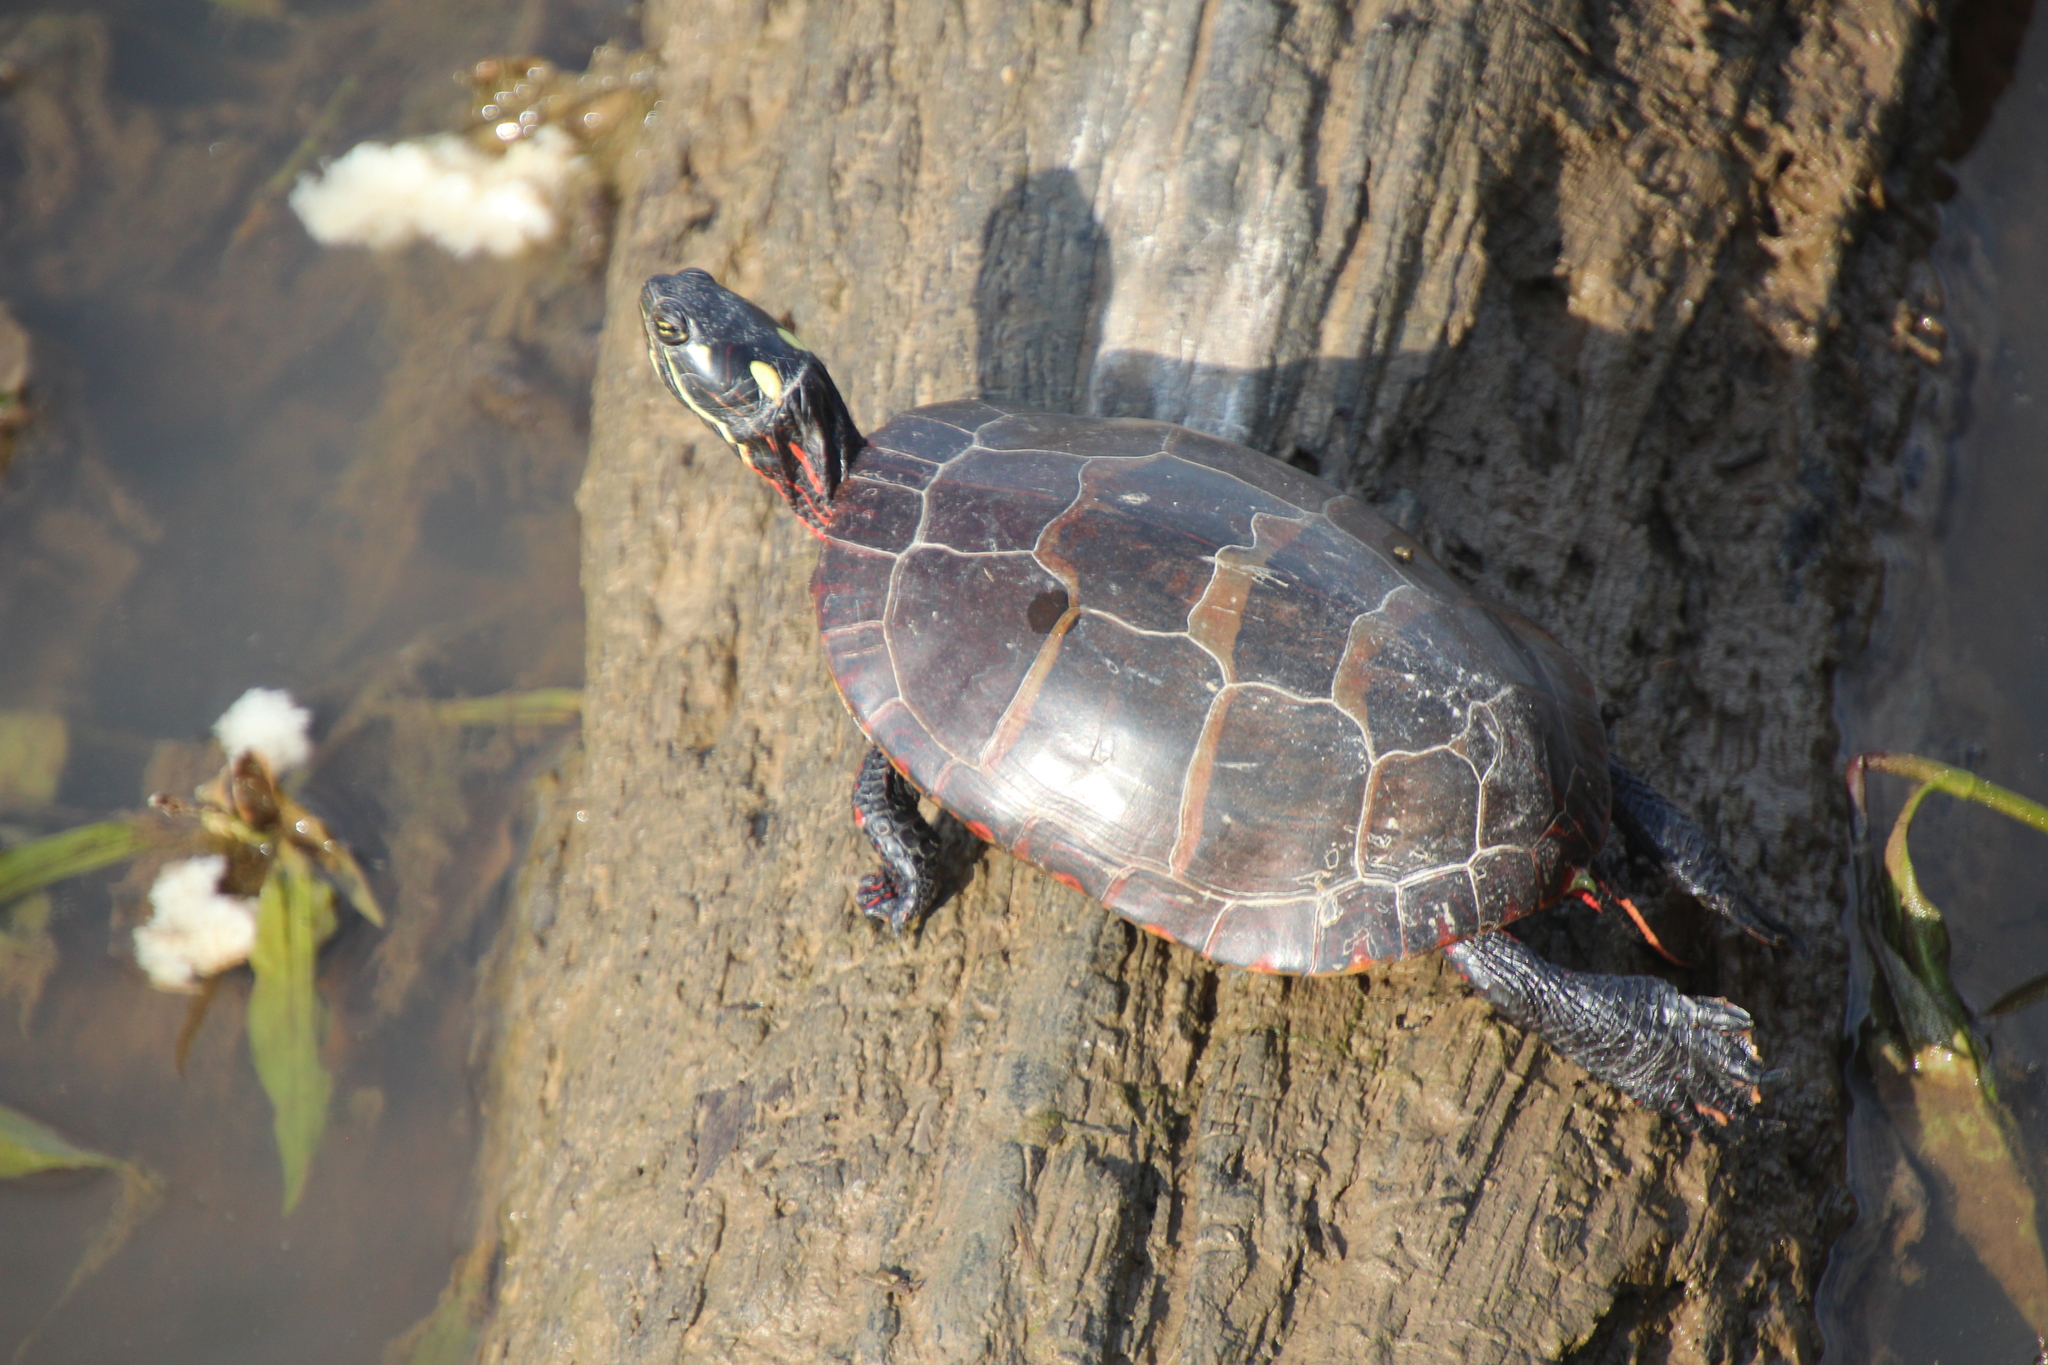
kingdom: Animalia
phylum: Chordata
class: Testudines
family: Emydidae
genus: Chrysemys
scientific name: Chrysemys picta
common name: Painted turtle
